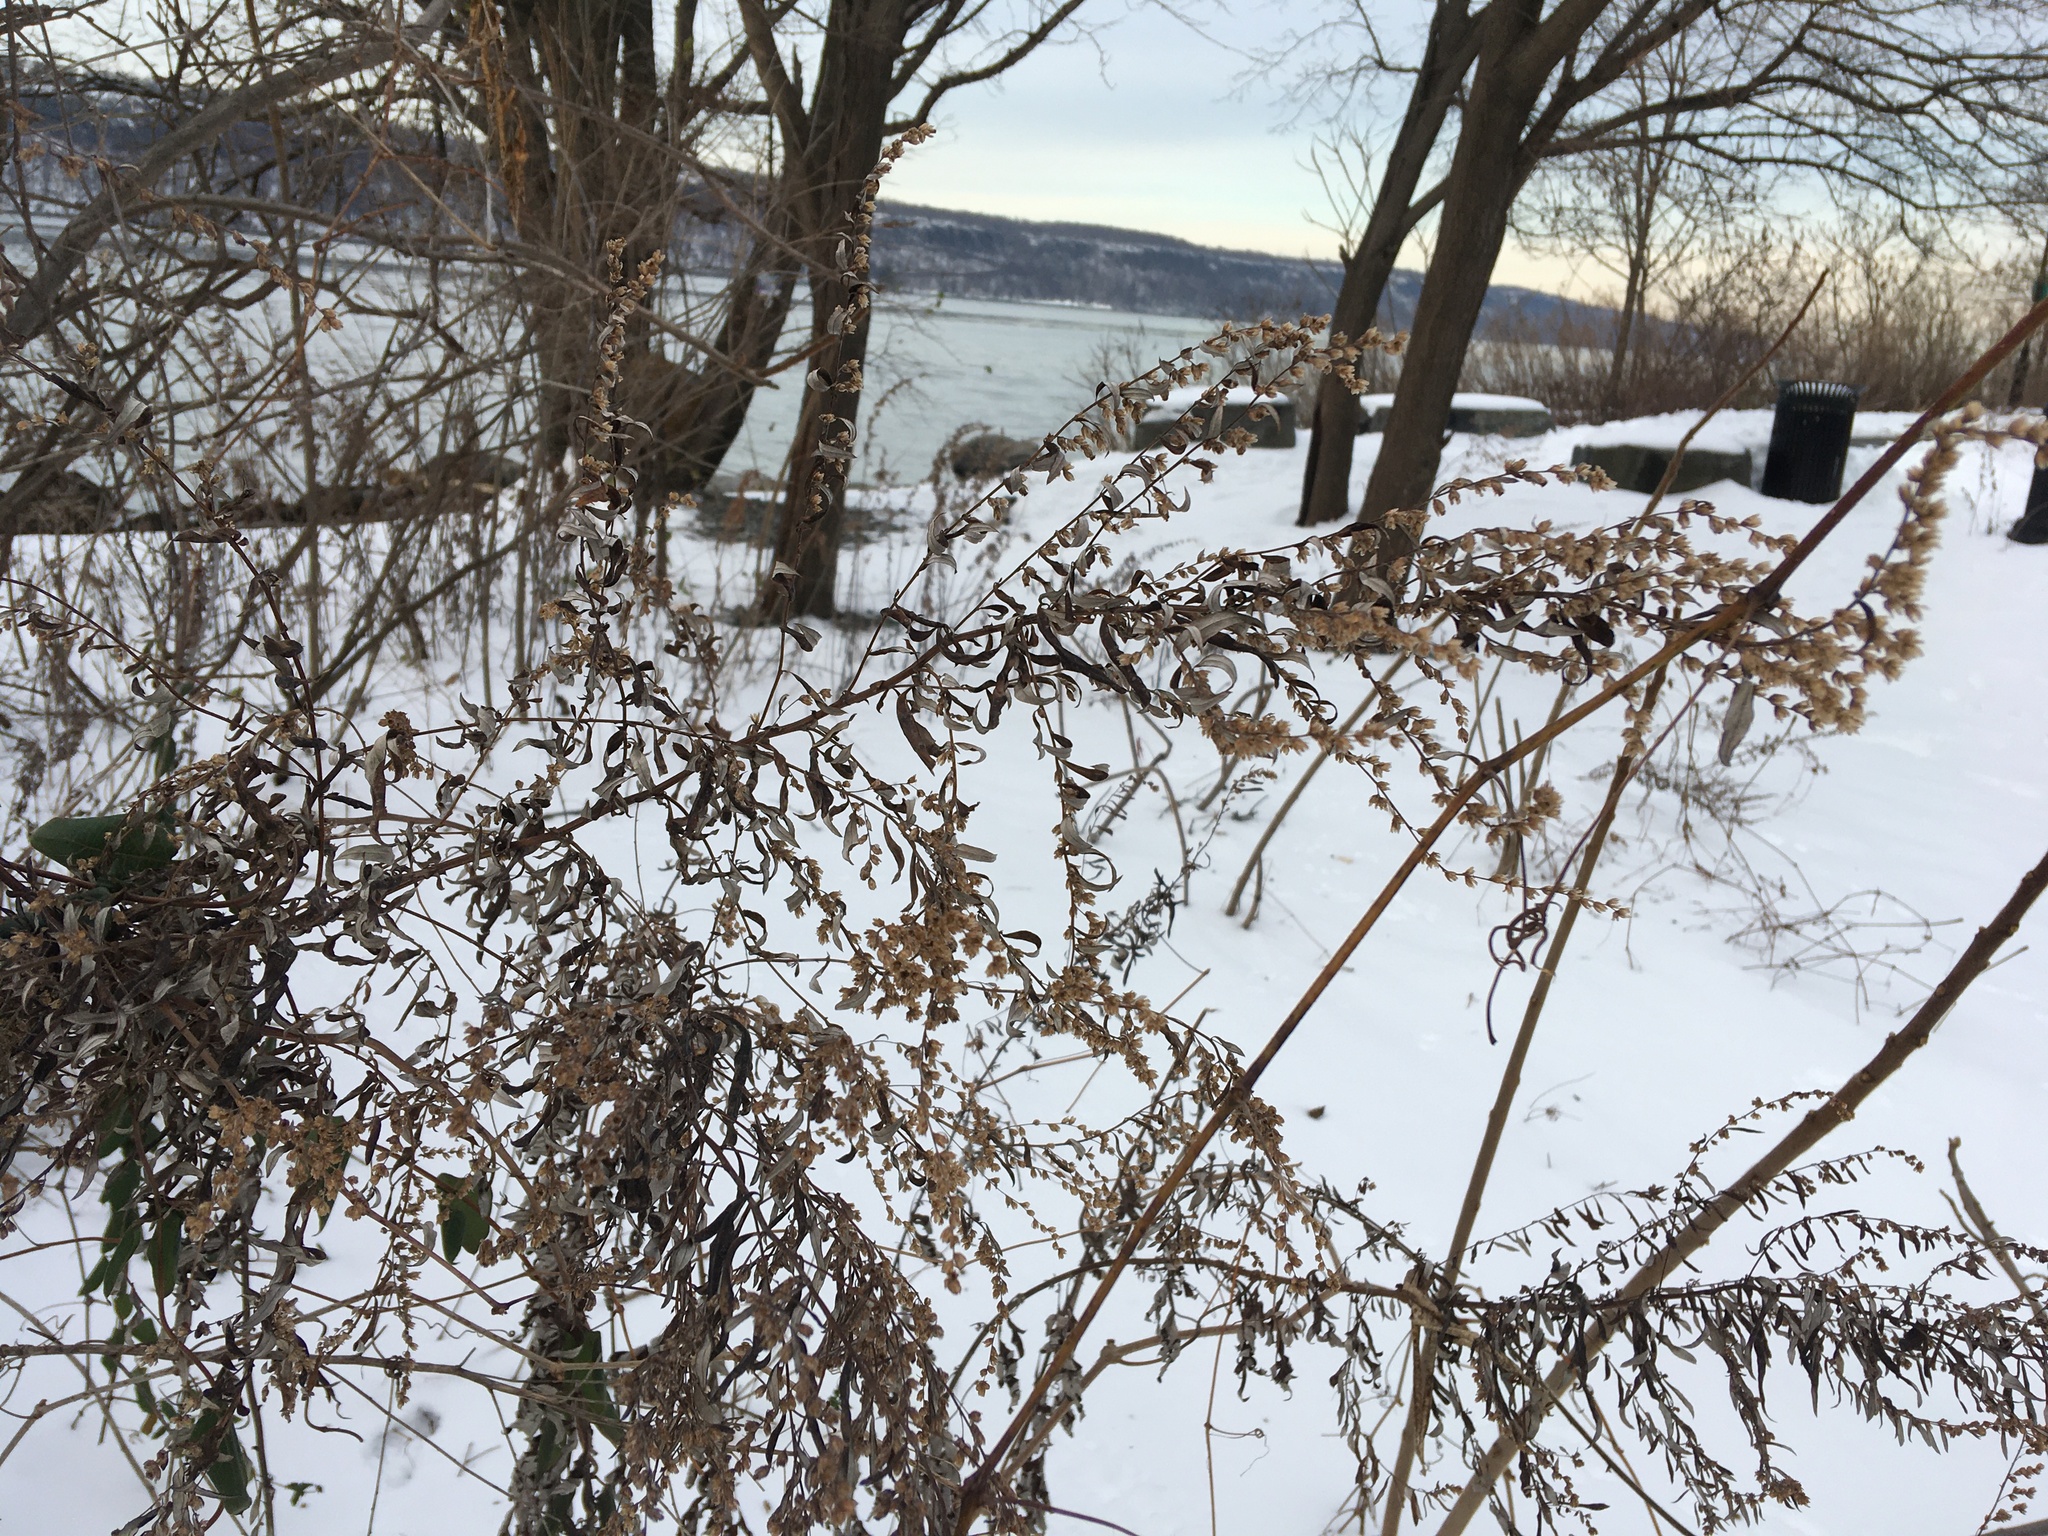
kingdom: Plantae
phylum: Tracheophyta
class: Magnoliopsida
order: Asterales
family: Asteraceae
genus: Artemisia
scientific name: Artemisia vulgaris
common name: Mugwort
